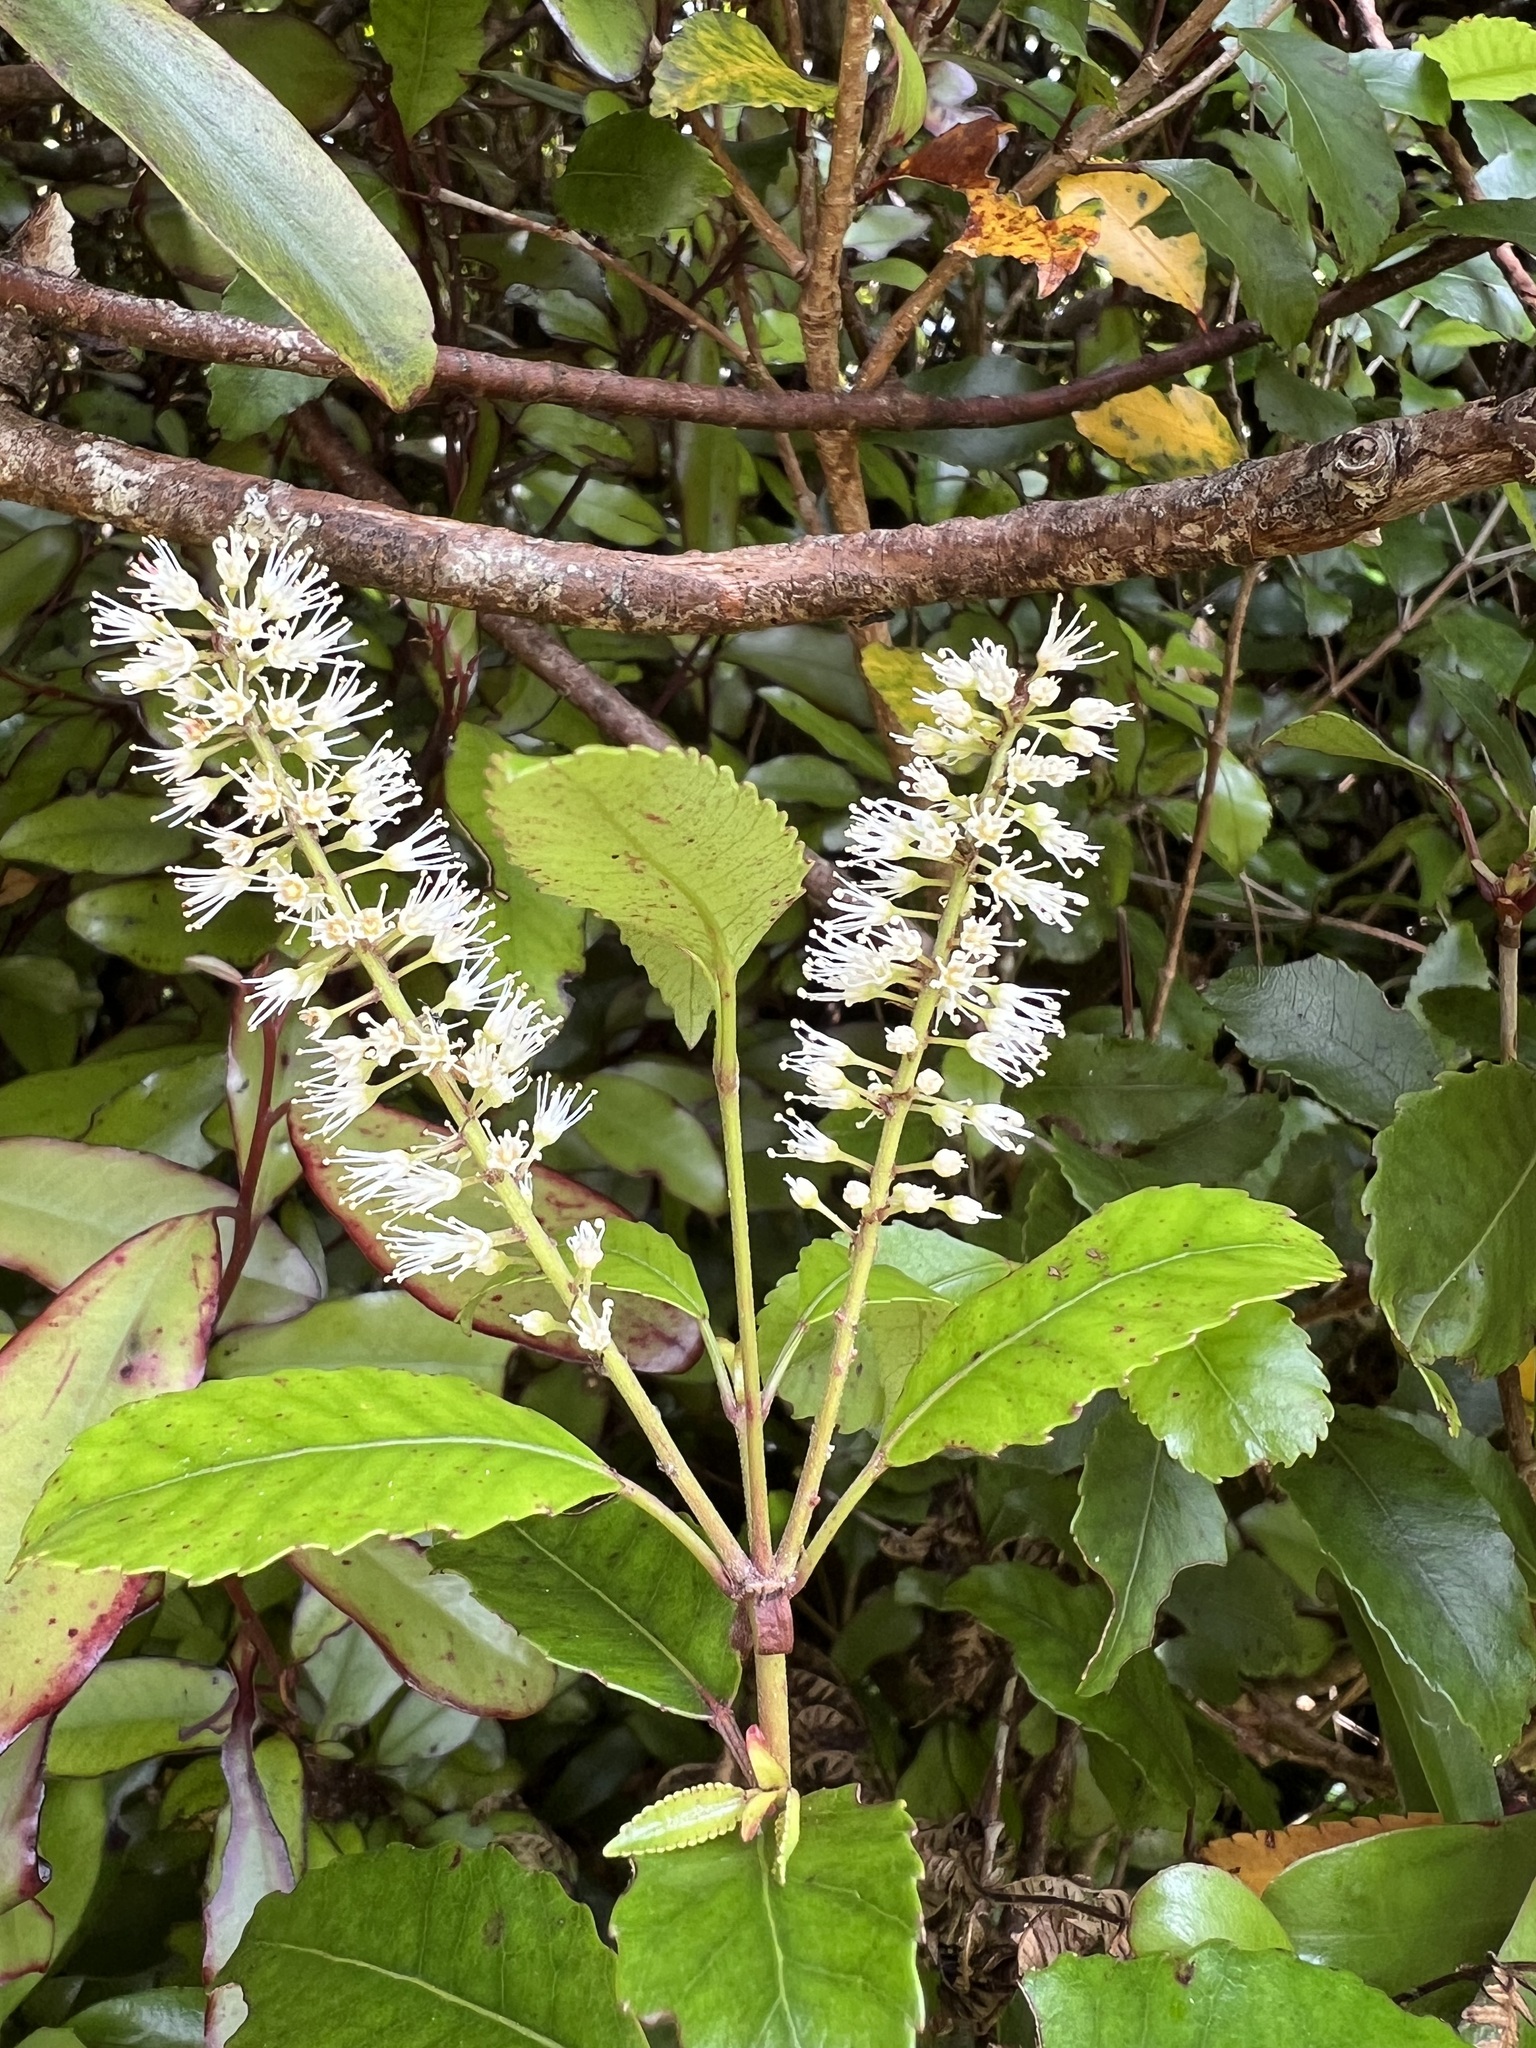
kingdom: Plantae
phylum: Tracheophyta
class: Magnoliopsida
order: Oxalidales
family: Cunoniaceae
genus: Pterophylla
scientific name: Pterophylla racemosa
